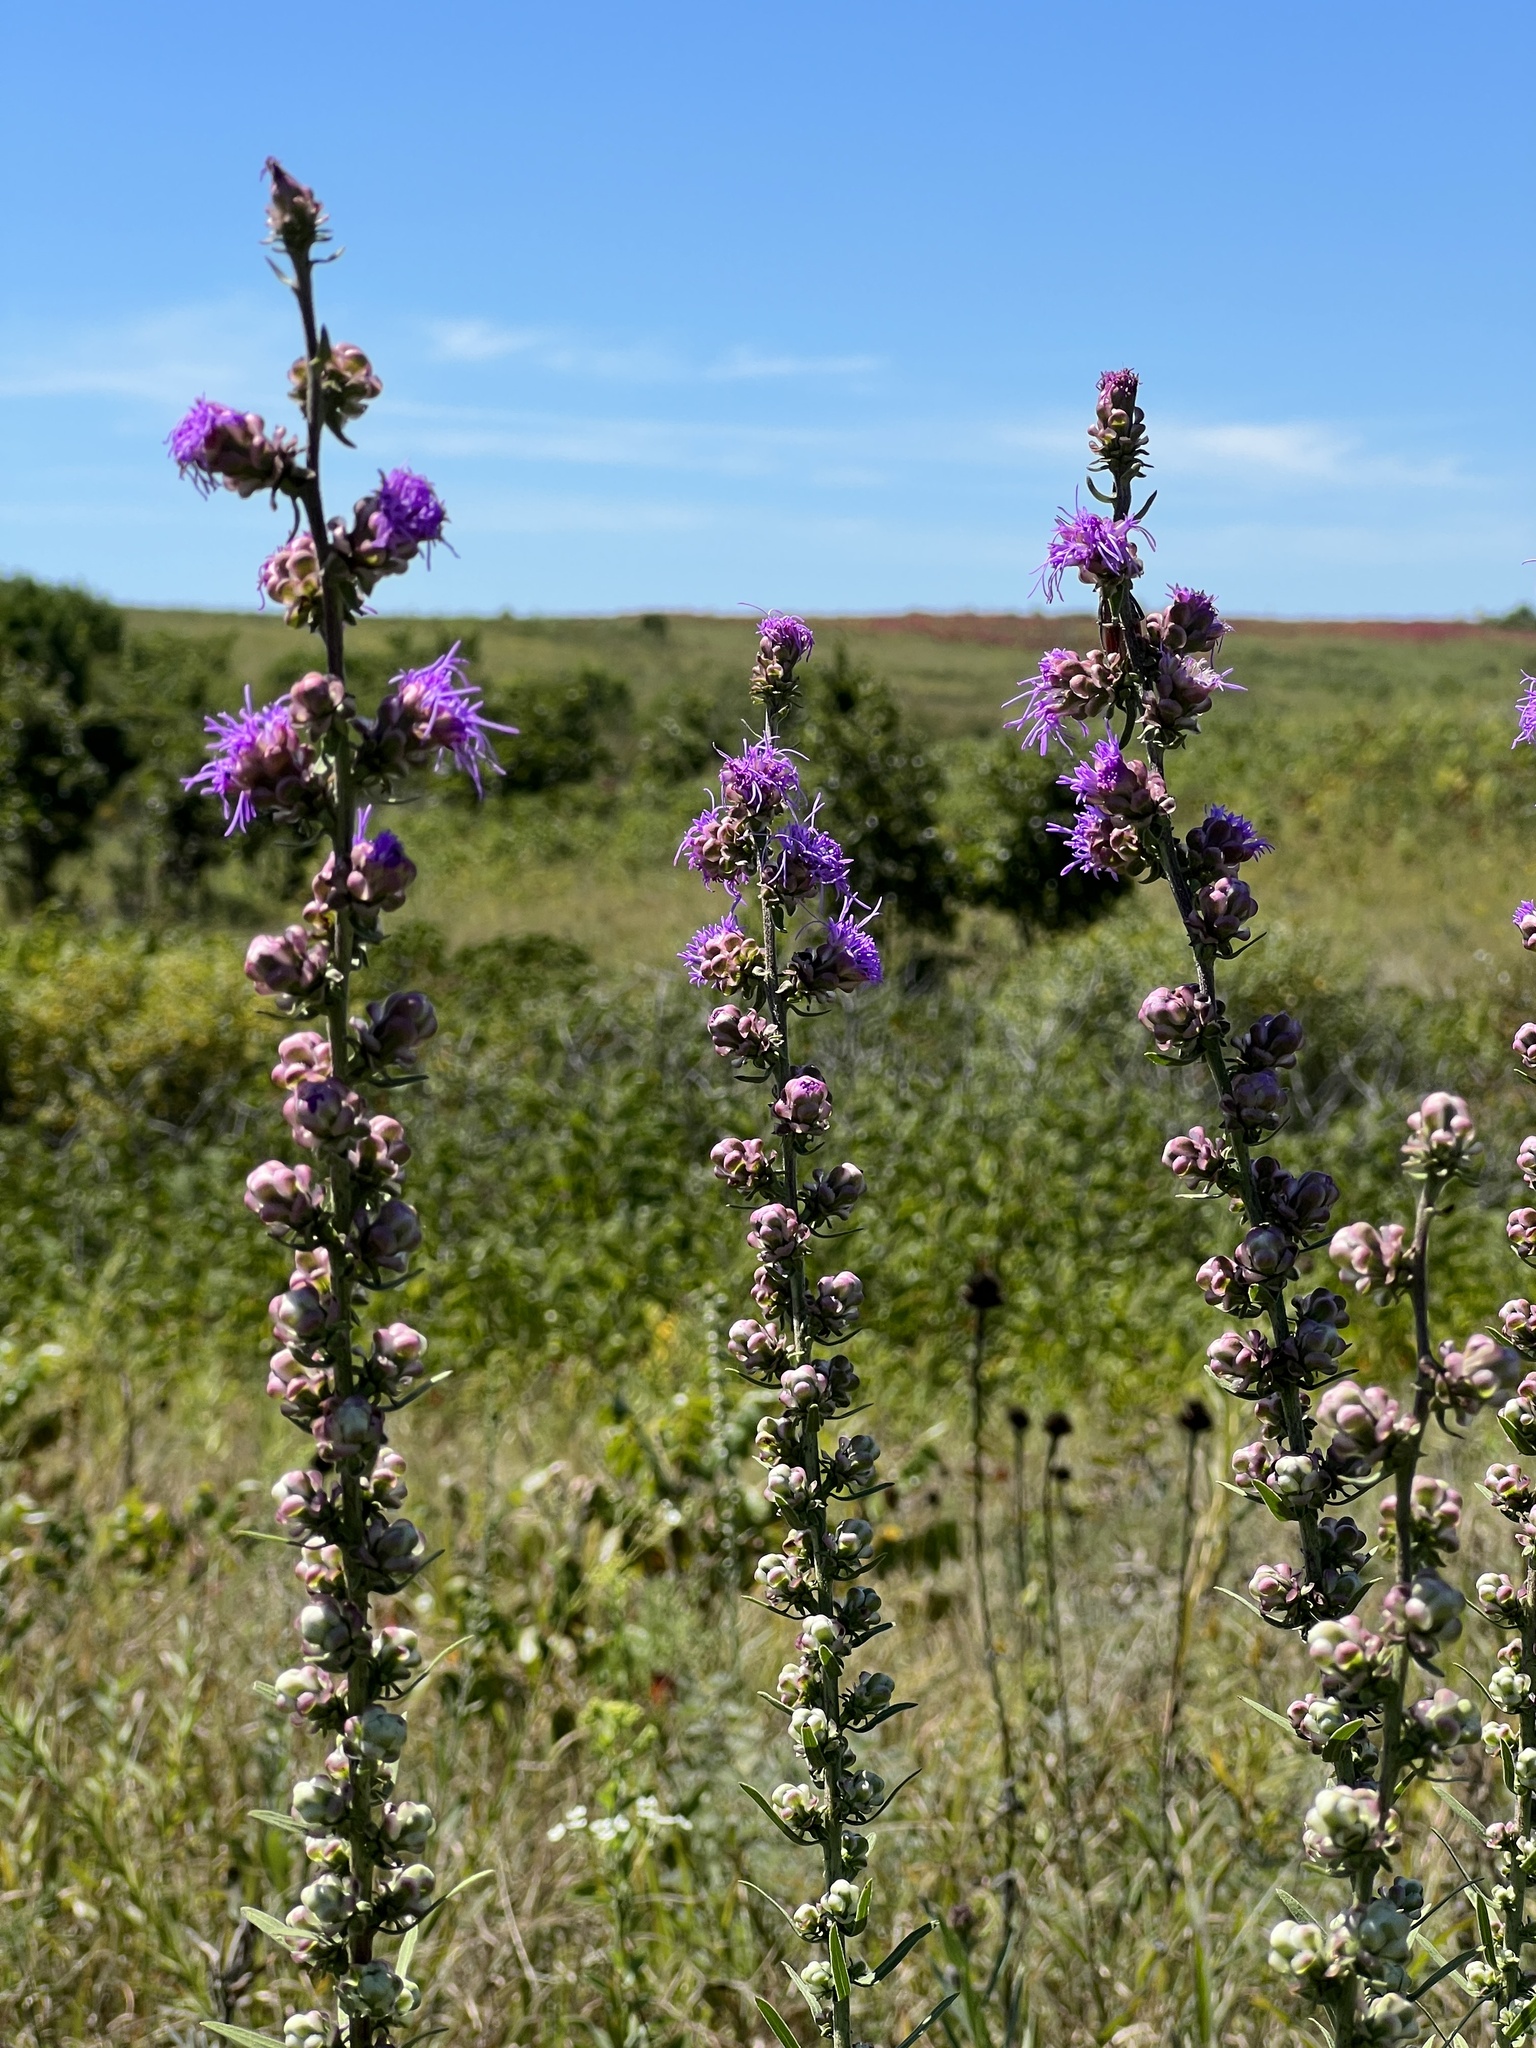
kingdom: Plantae
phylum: Tracheophyta
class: Magnoliopsida
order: Asterales
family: Asteraceae
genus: Liatris
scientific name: Liatris aspera
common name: Lacerate blazing-star
